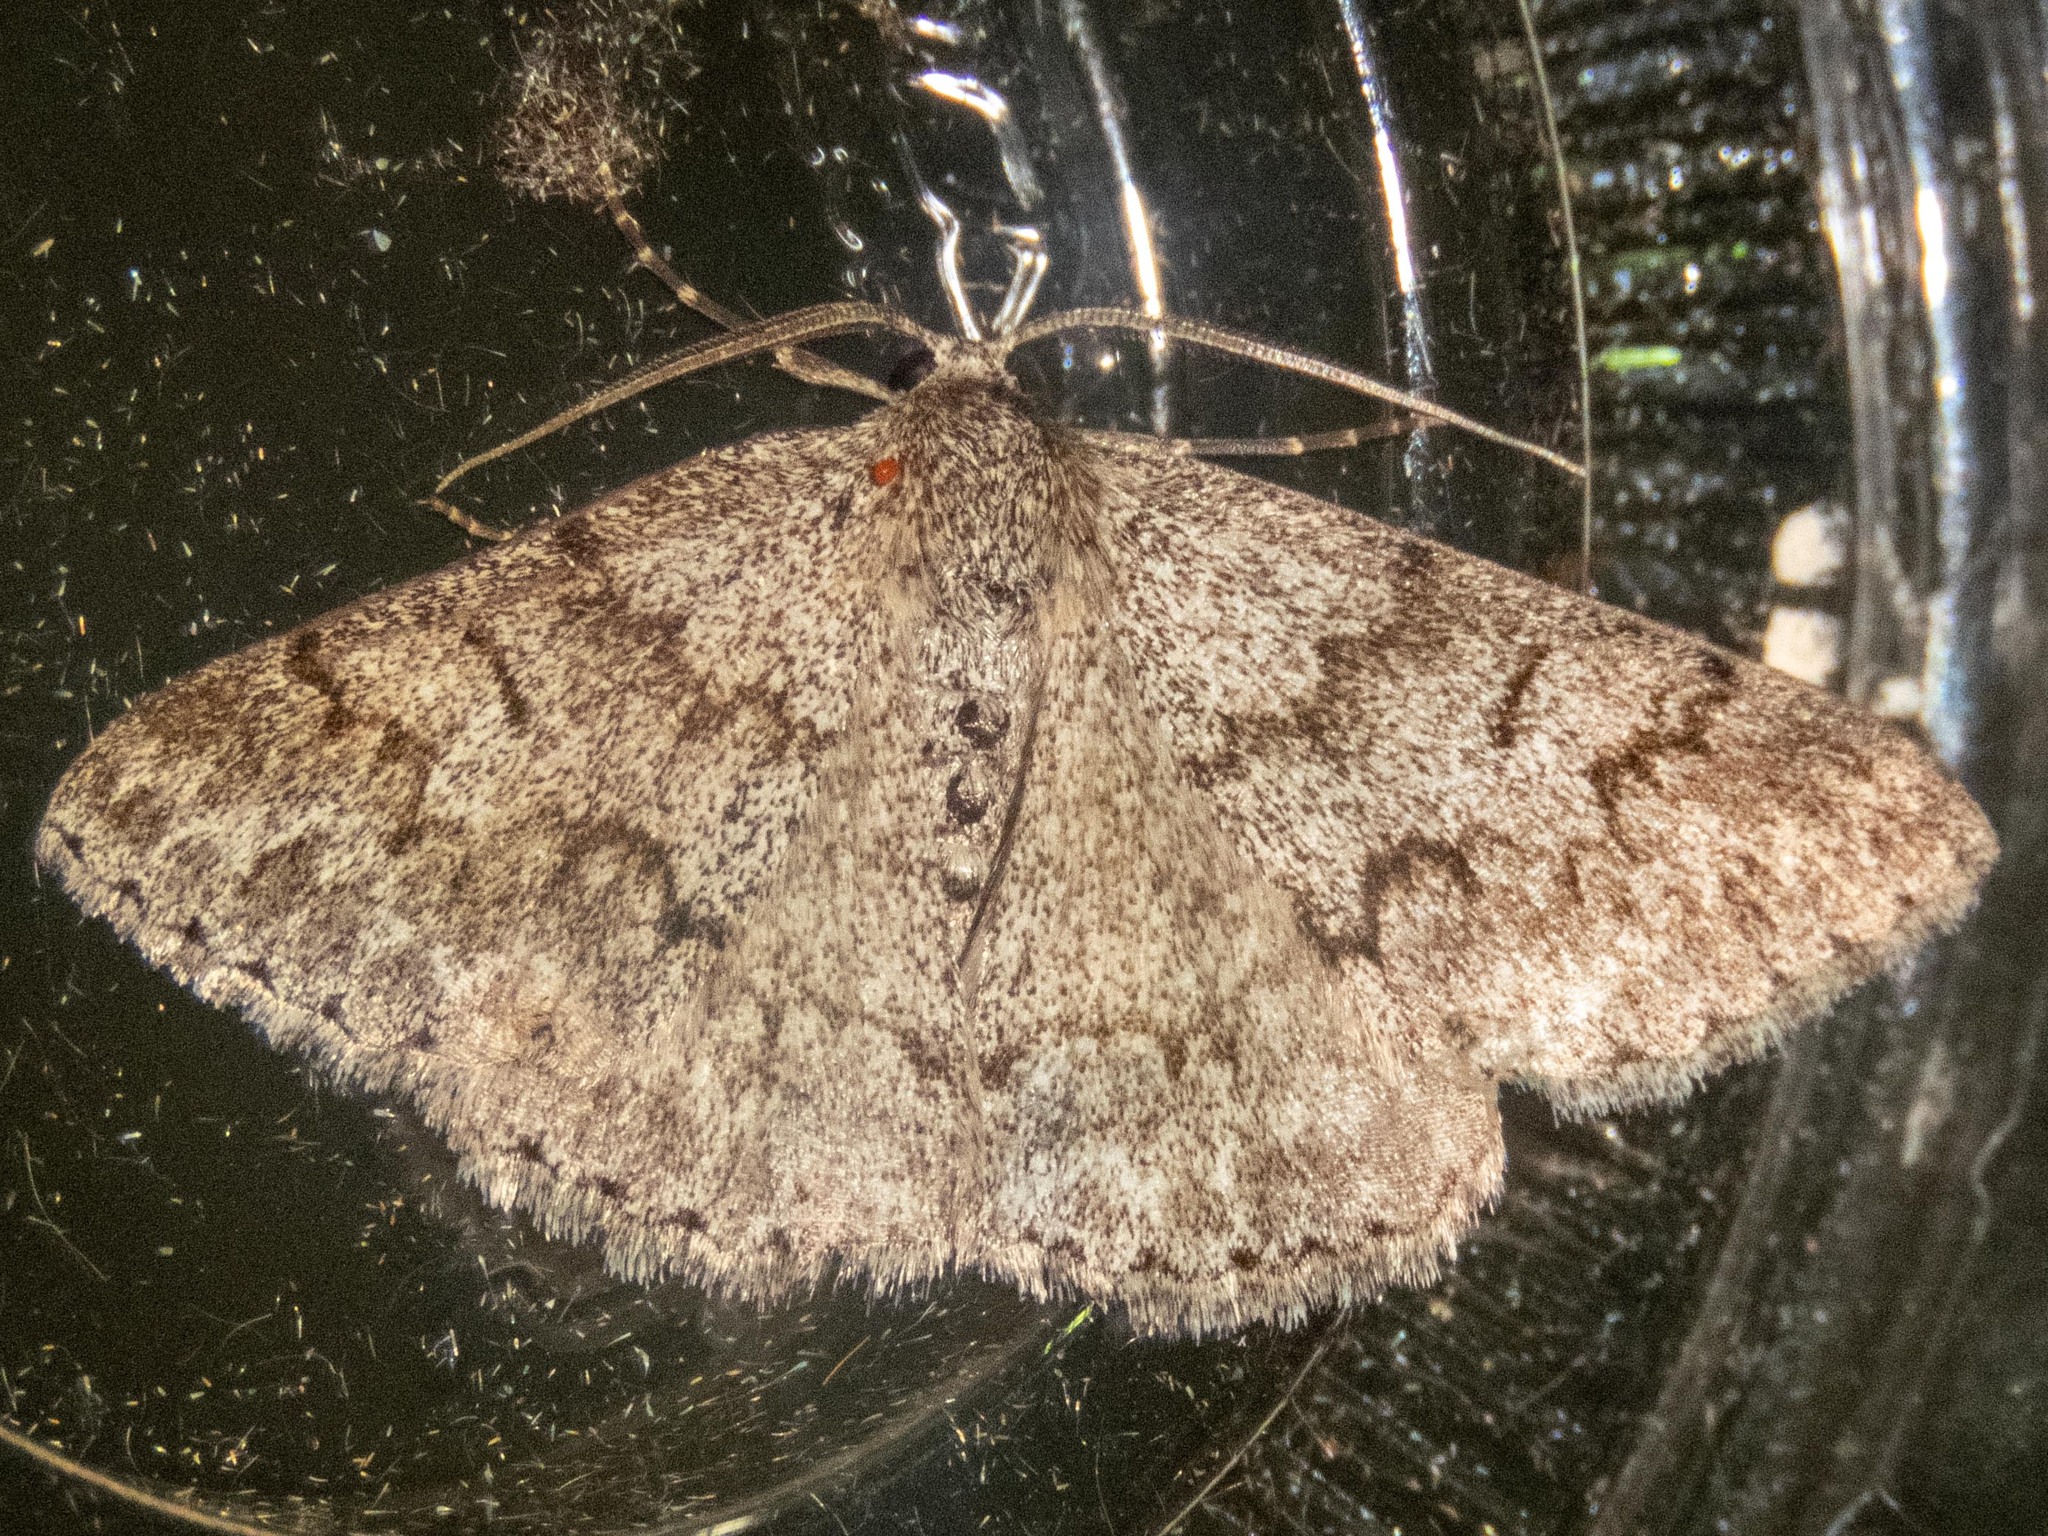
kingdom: Animalia
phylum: Arthropoda
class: Insecta
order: Lepidoptera
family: Geometridae
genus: Pseudoterpna
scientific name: Pseudoterpna coronillaria
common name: Jersey emerald
